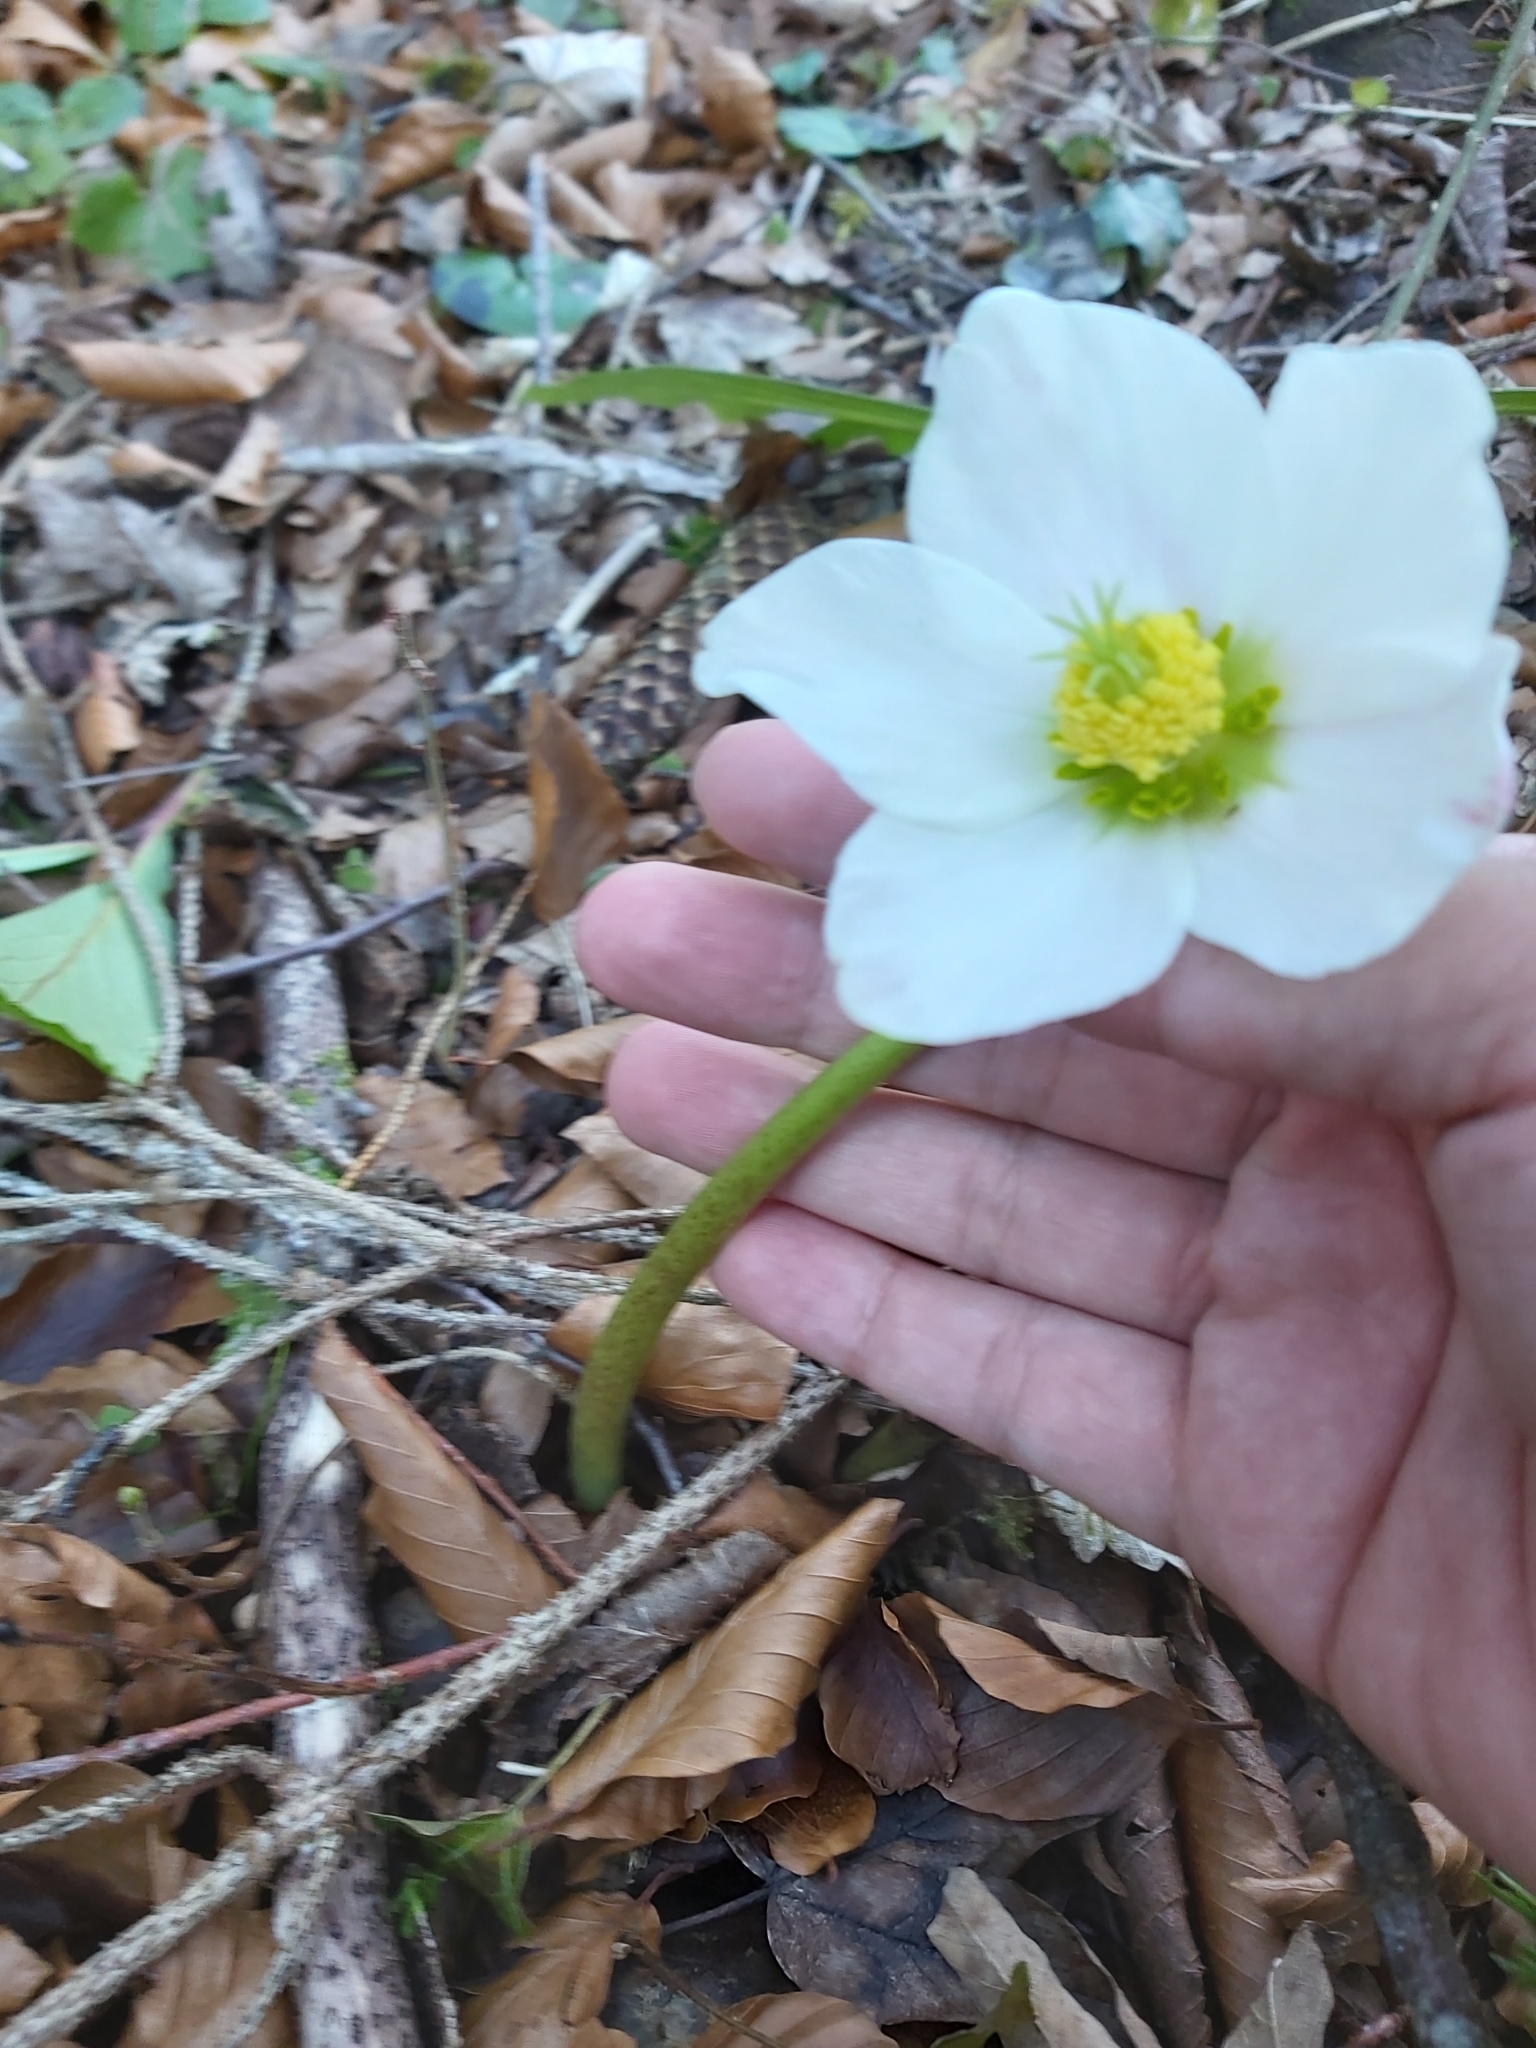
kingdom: Plantae
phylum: Tracheophyta
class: Magnoliopsida
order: Ranunculales
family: Ranunculaceae
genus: Helleborus
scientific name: Helleborus niger
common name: Black hellebore
